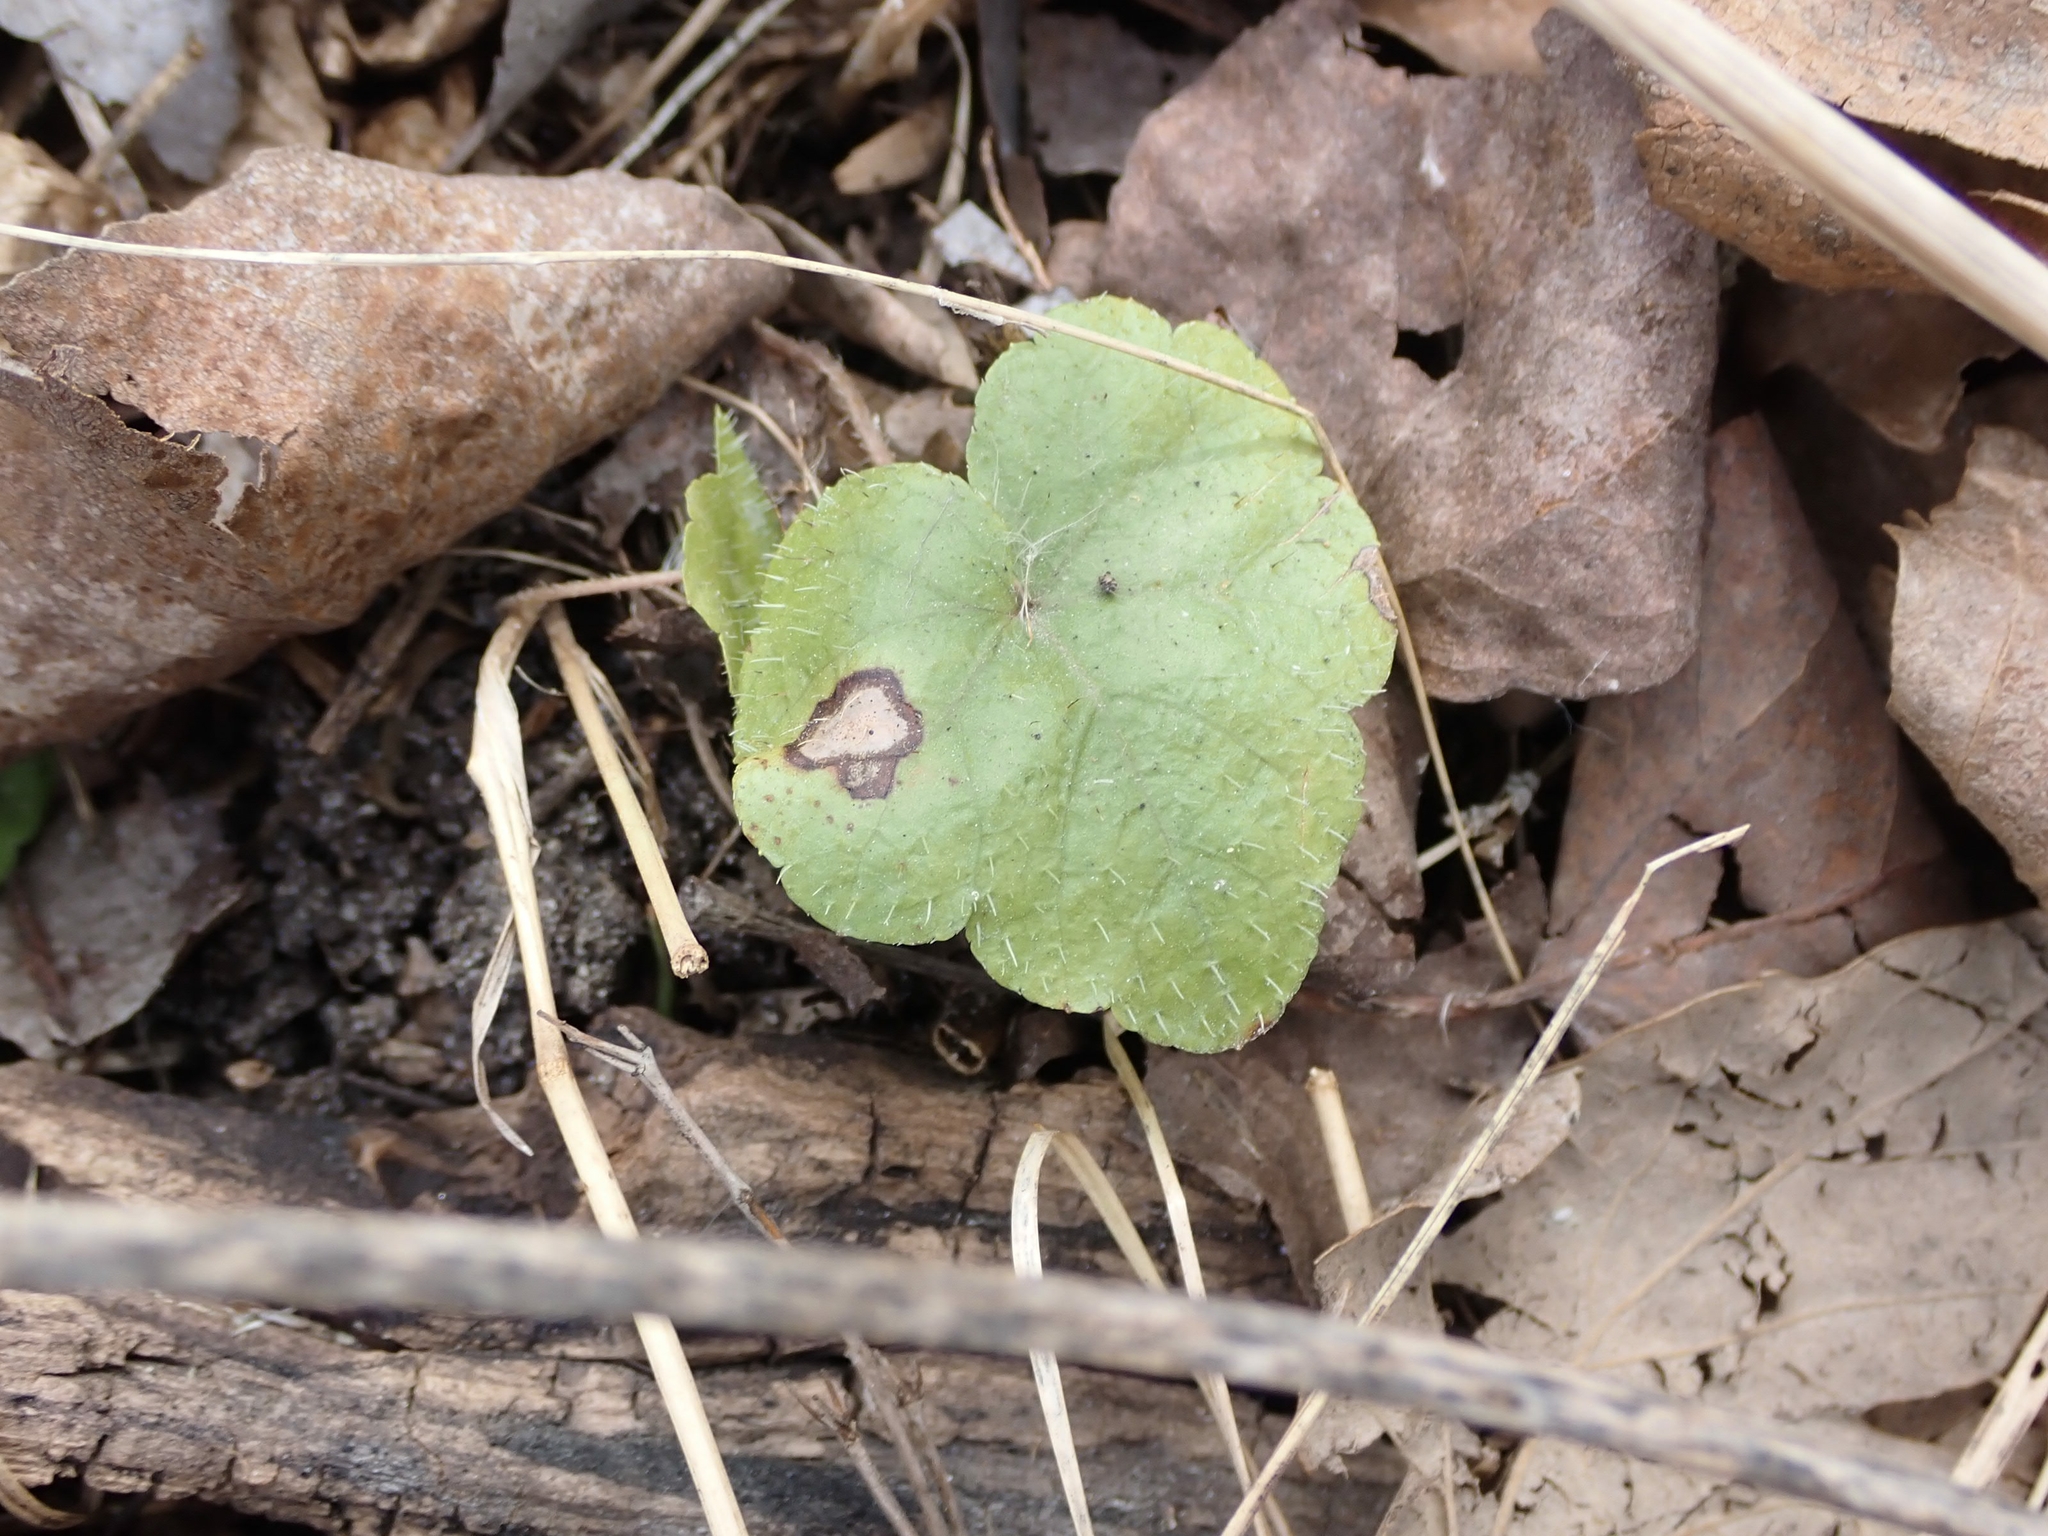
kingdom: Plantae
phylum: Tracheophyta
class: Magnoliopsida
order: Saxifragales
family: Saxifragaceae
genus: Mitella
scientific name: Mitella nuda
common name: Bare-stemmed bishop's-cap
